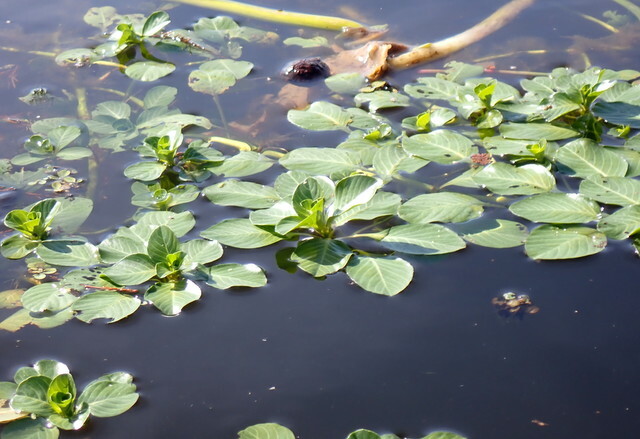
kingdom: Plantae
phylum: Tracheophyta
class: Magnoliopsida
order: Myrtales
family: Onagraceae
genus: Ludwigia
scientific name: Ludwigia peploides
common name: Floating primrose-willow
